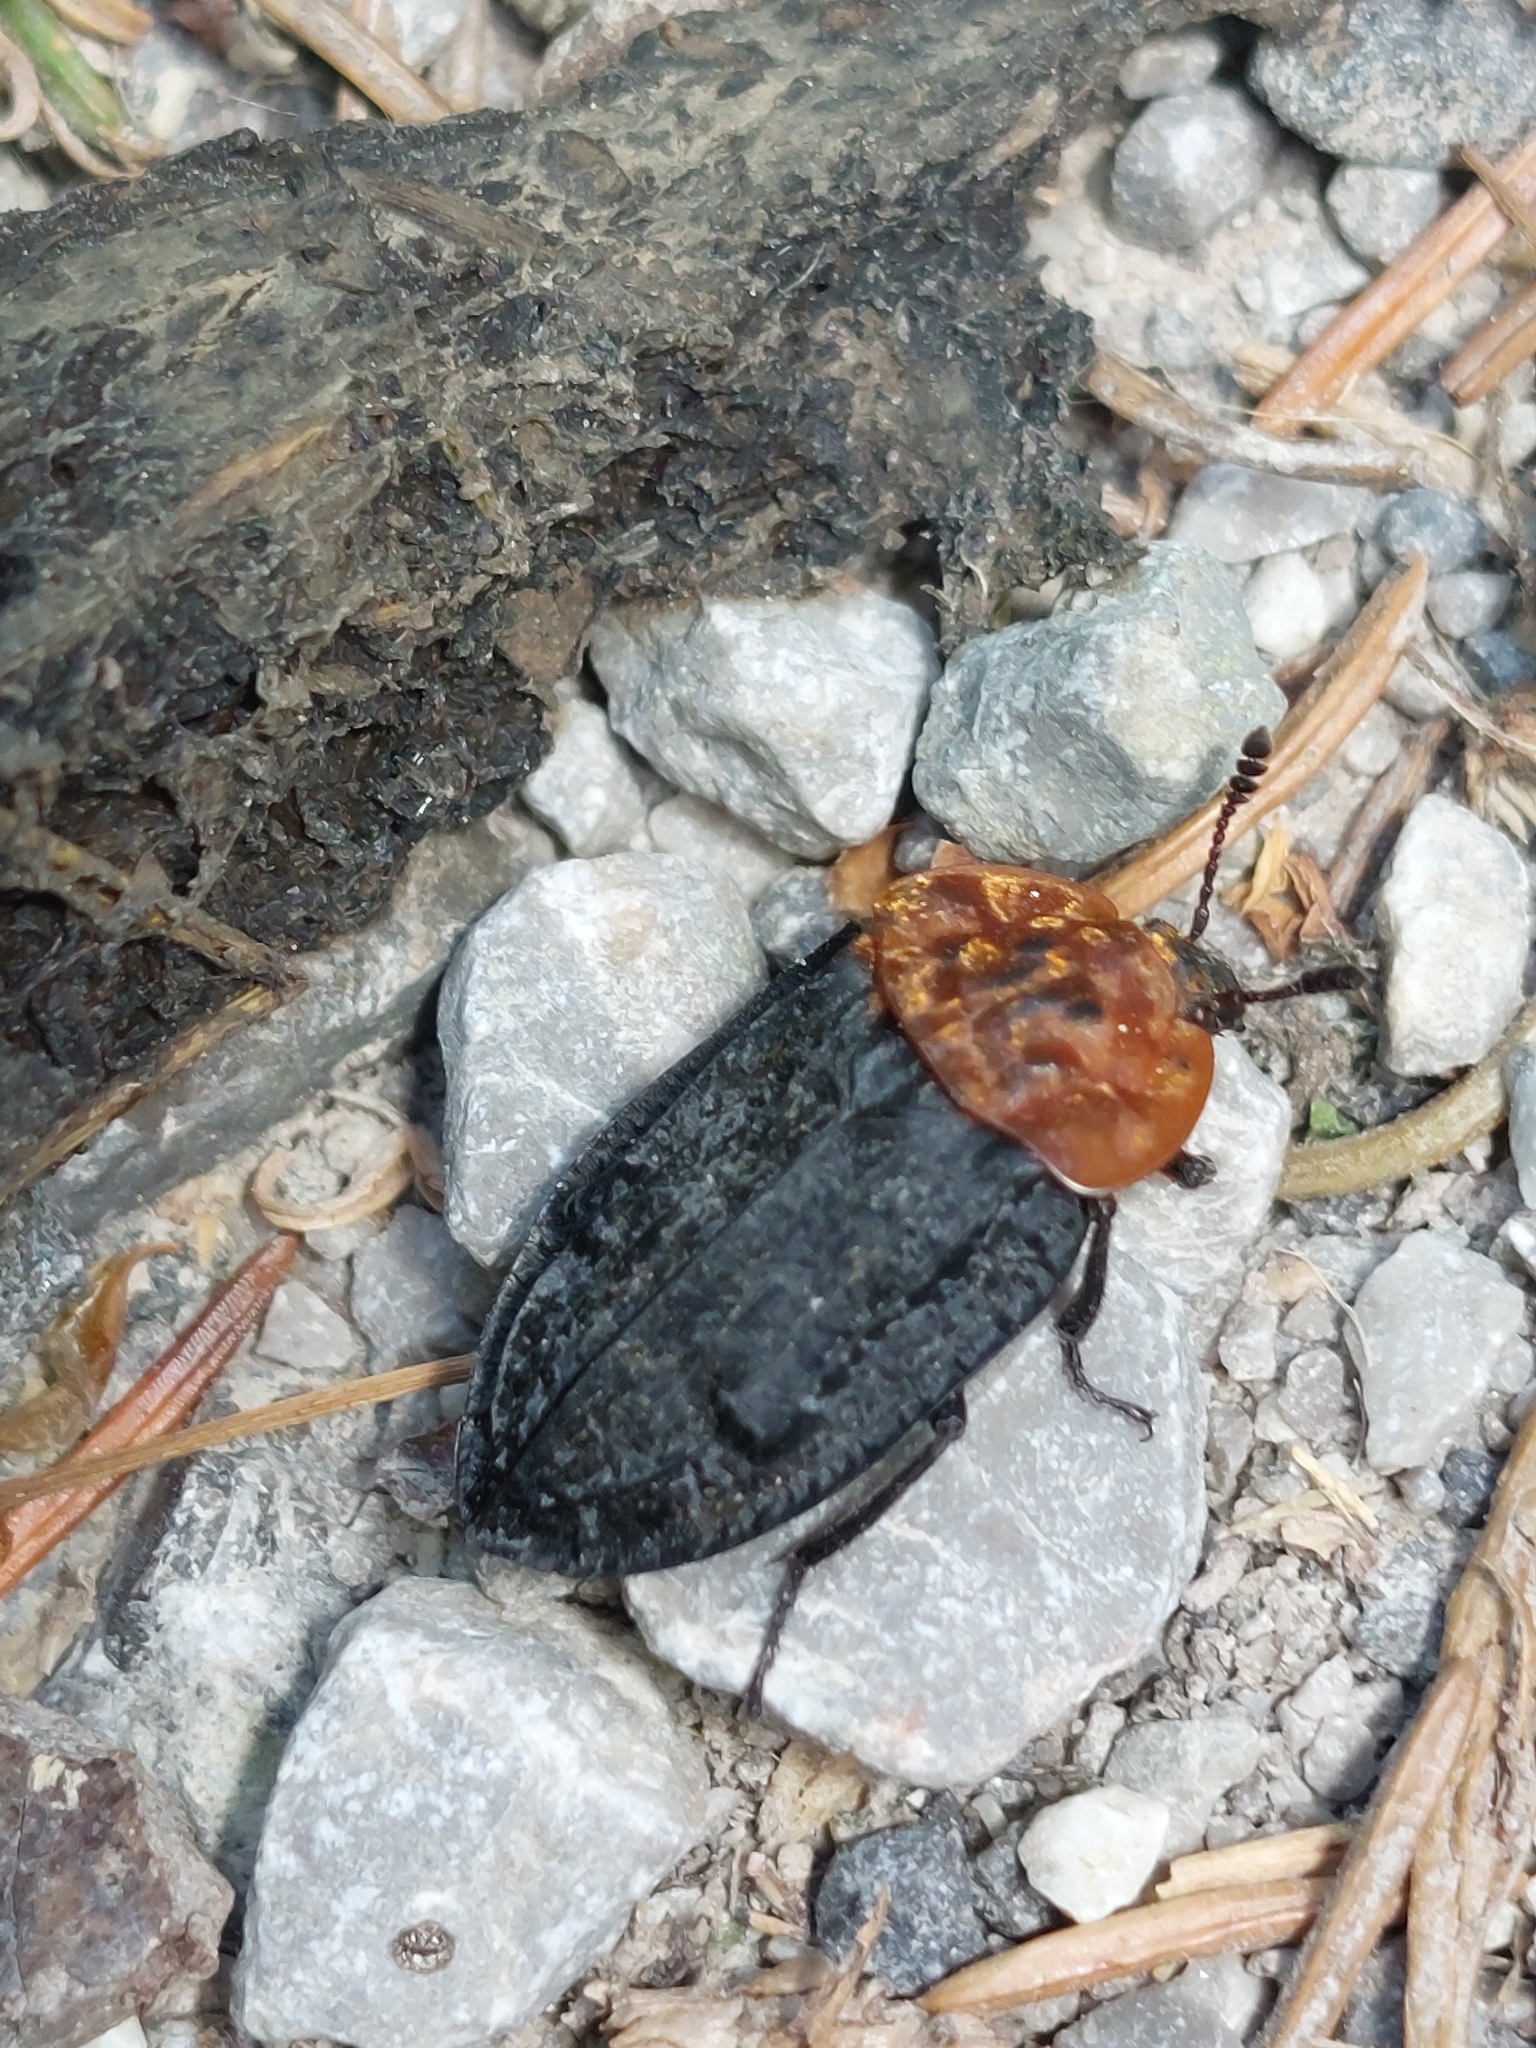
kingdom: Animalia
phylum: Arthropoda
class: Insecta
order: Coleoptera
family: Staphylinidae
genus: Oiceoptoma
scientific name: Oiceoptoma thoracicum
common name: Red-breasted carrion beetle
